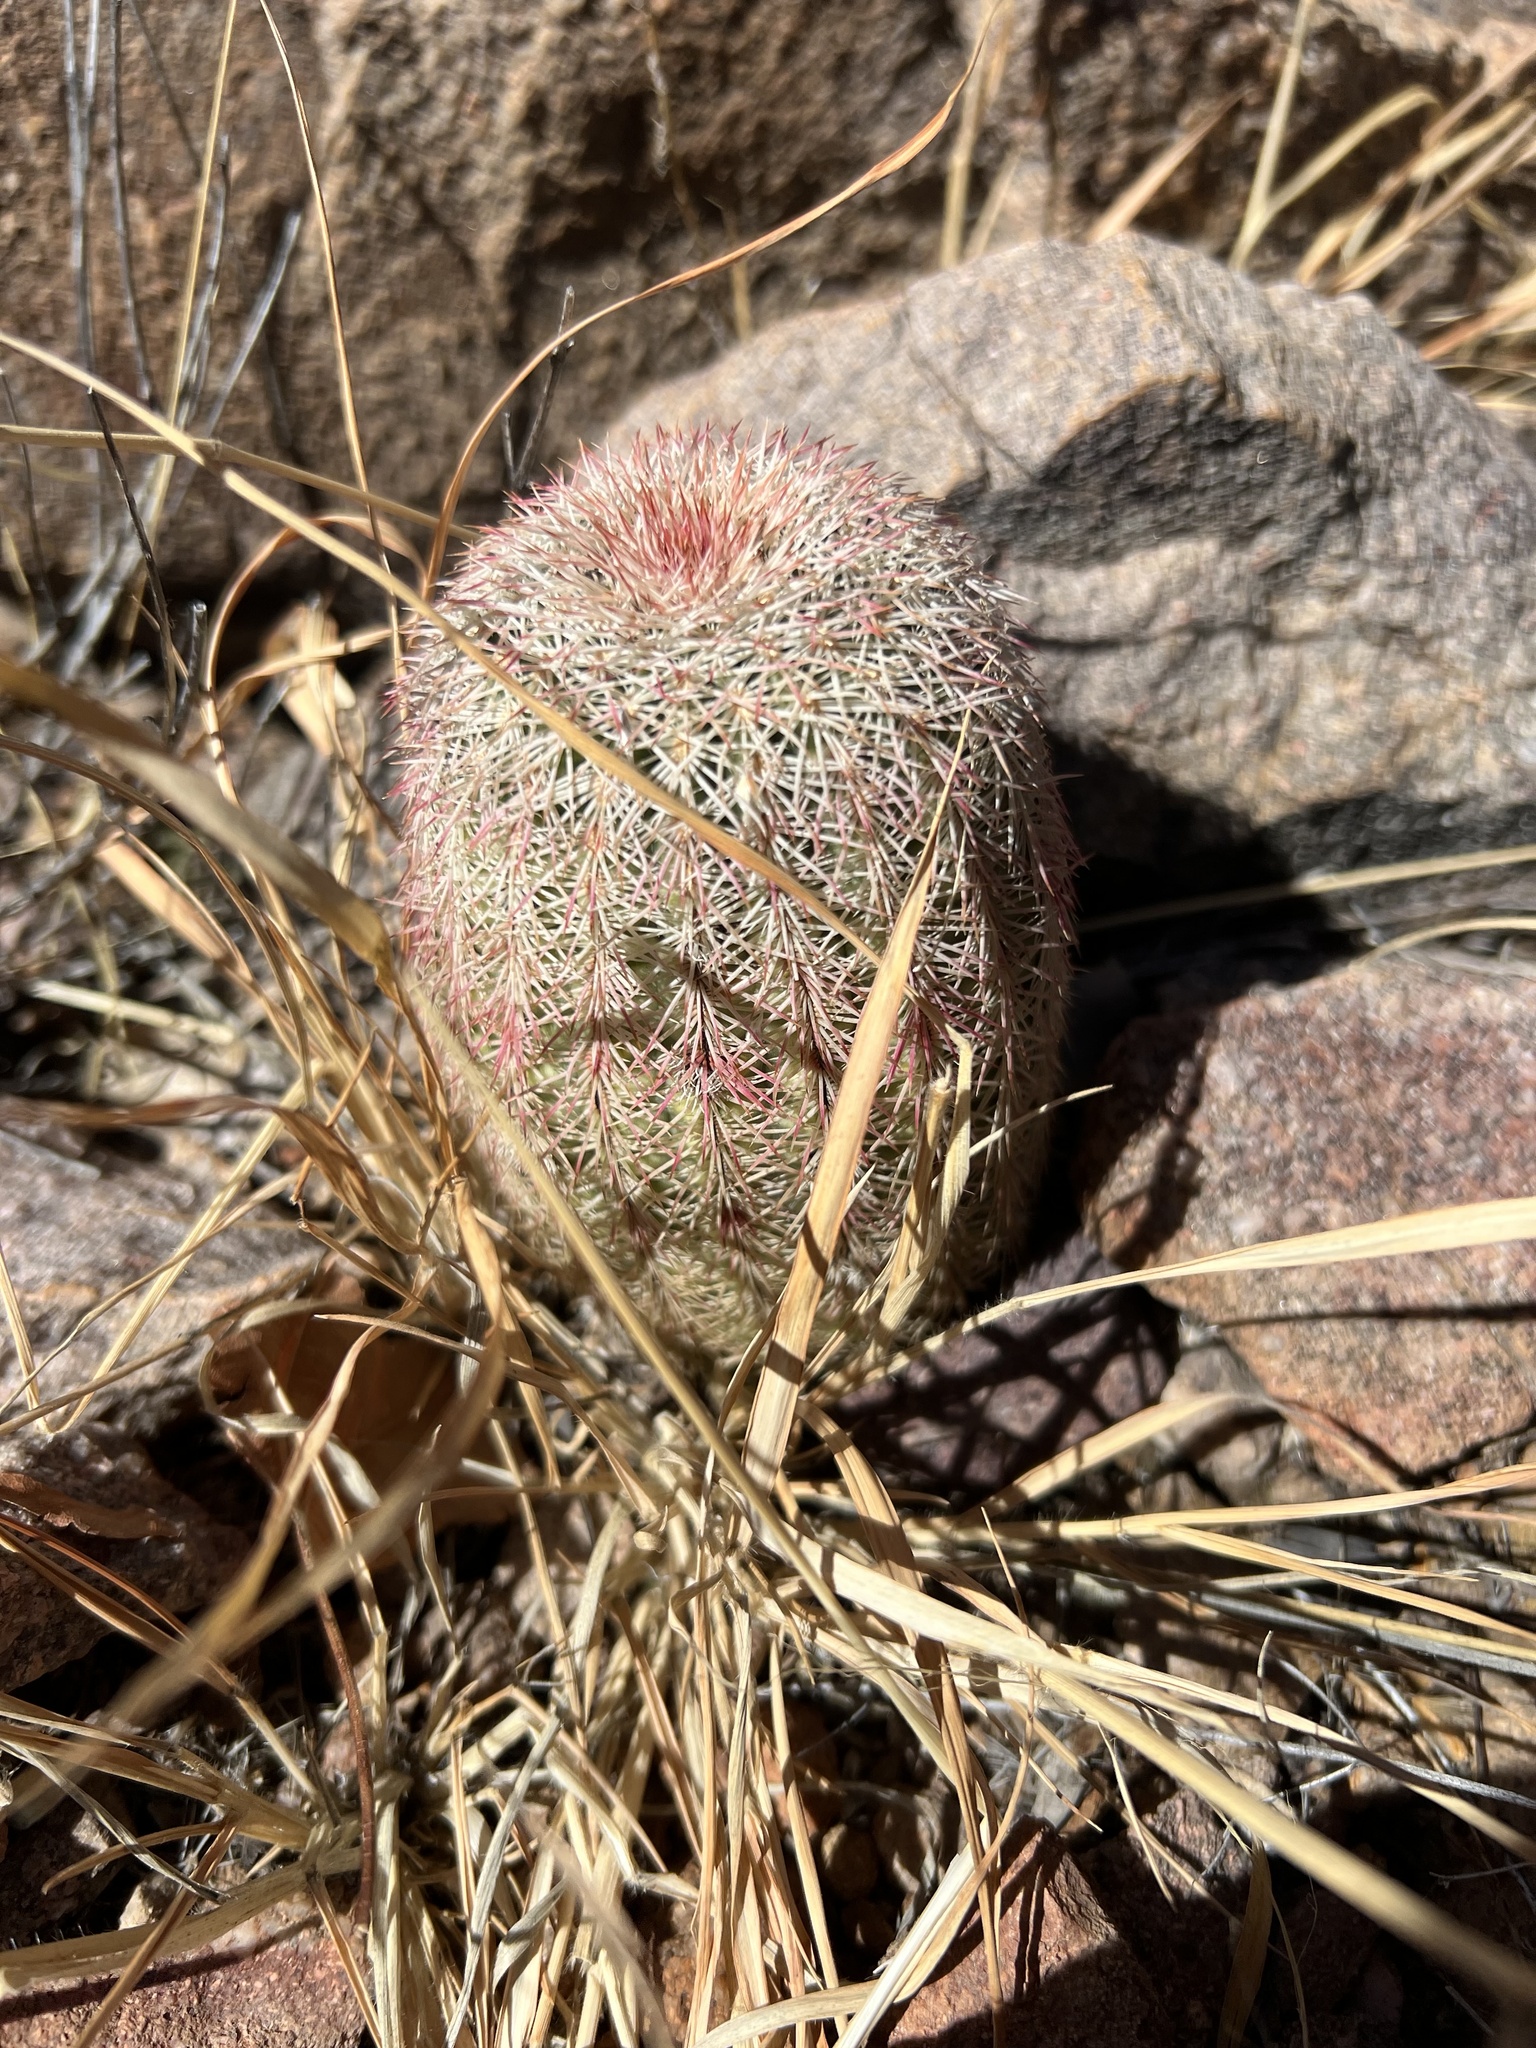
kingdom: Plantae
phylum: Tracheophyta
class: Magnoliopsida
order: Caryophyllales
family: Cactaceae
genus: Echinocereus
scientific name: Echinocereus rigidissimus
